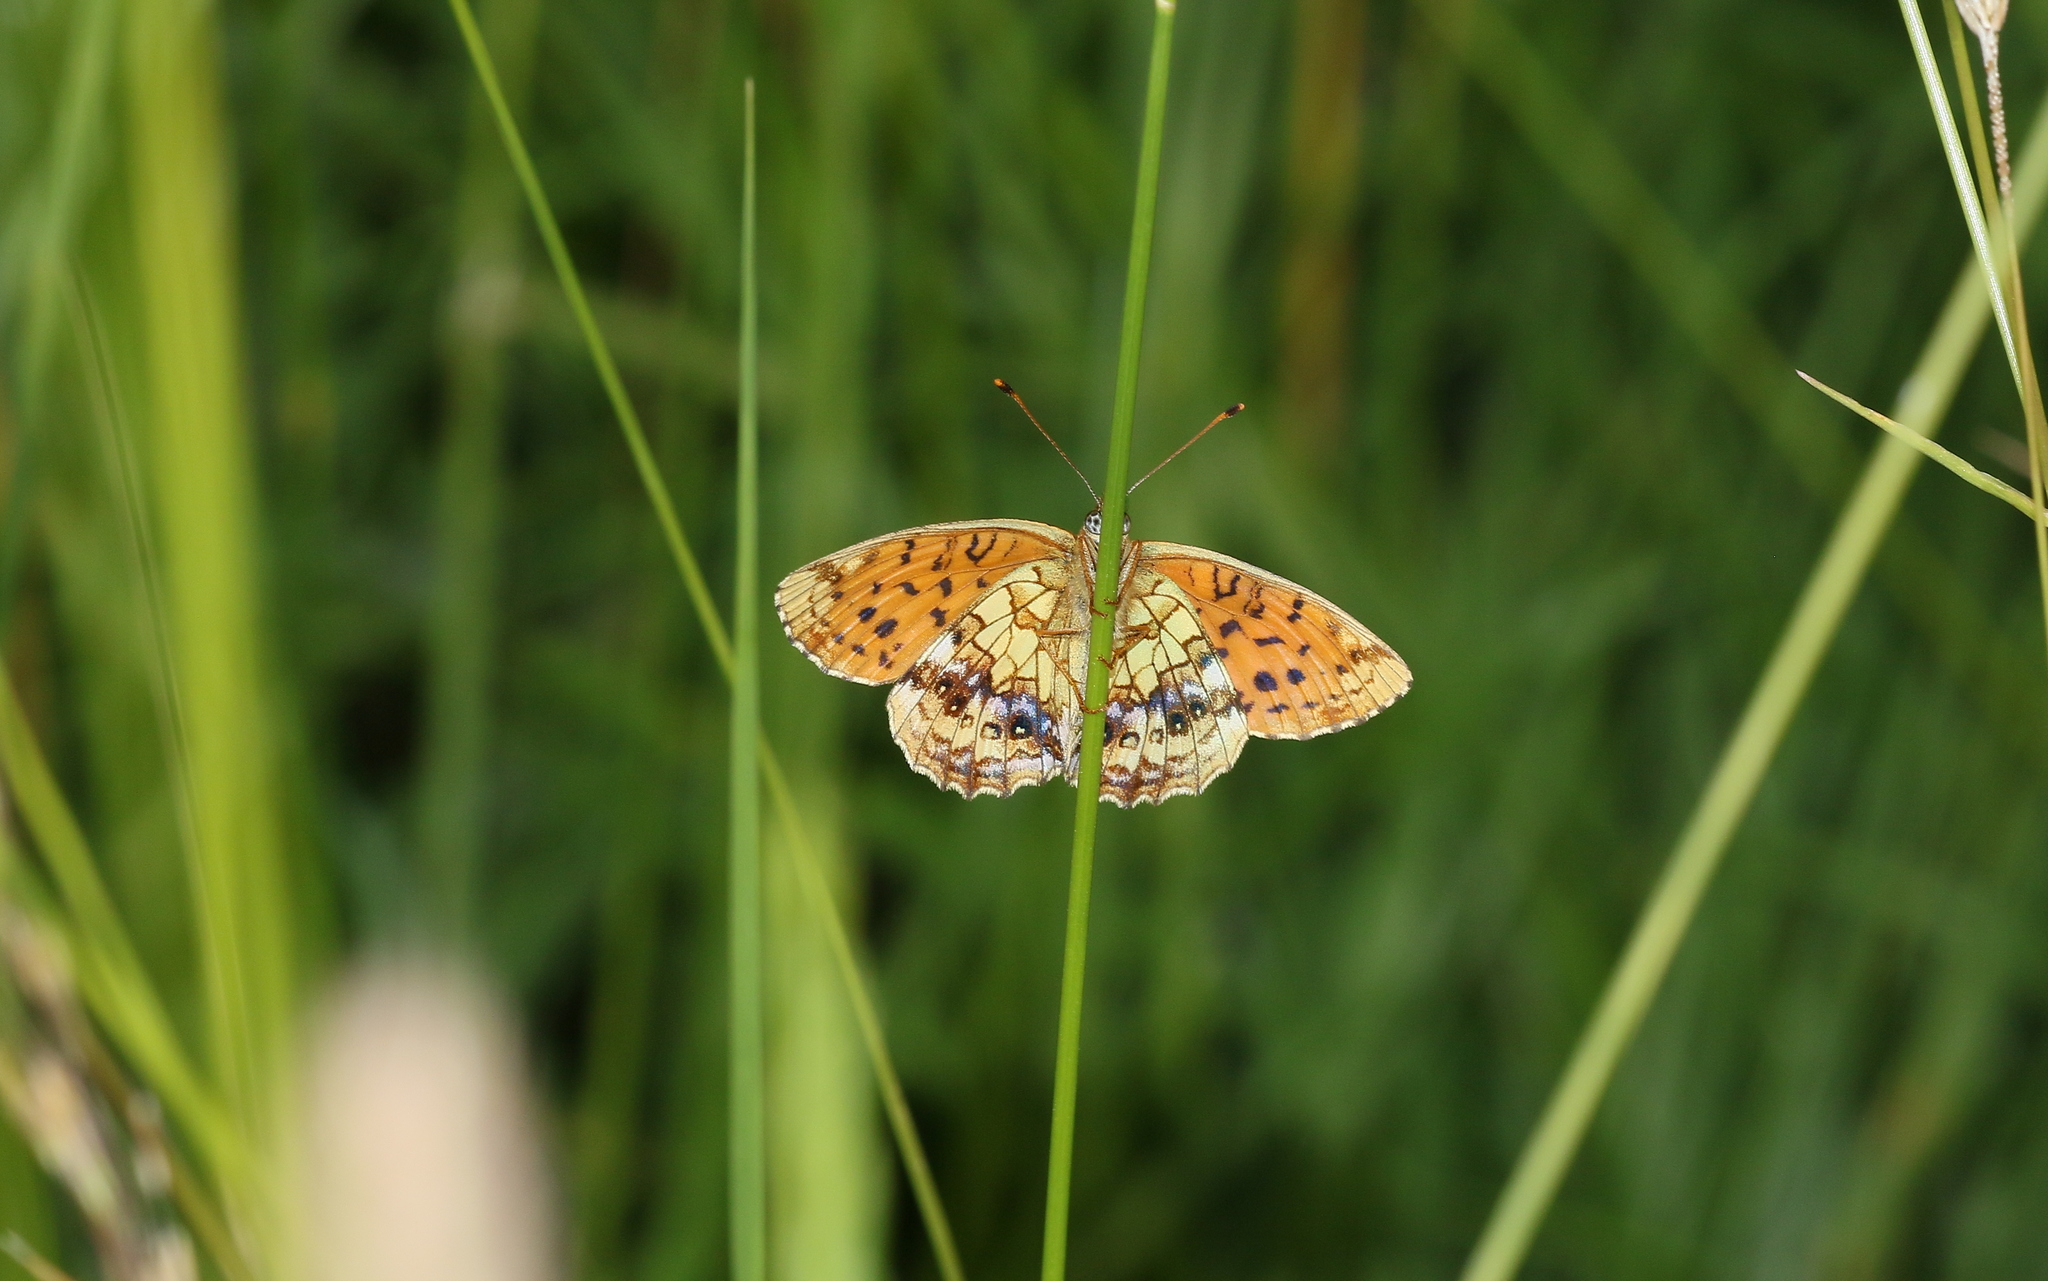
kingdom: Animalia
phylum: Arthropoda
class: Insecta
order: Lepidoptera
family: Nymphalidae
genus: Brenthis
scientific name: Brenthis ino
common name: Lesser marbled fritillary
